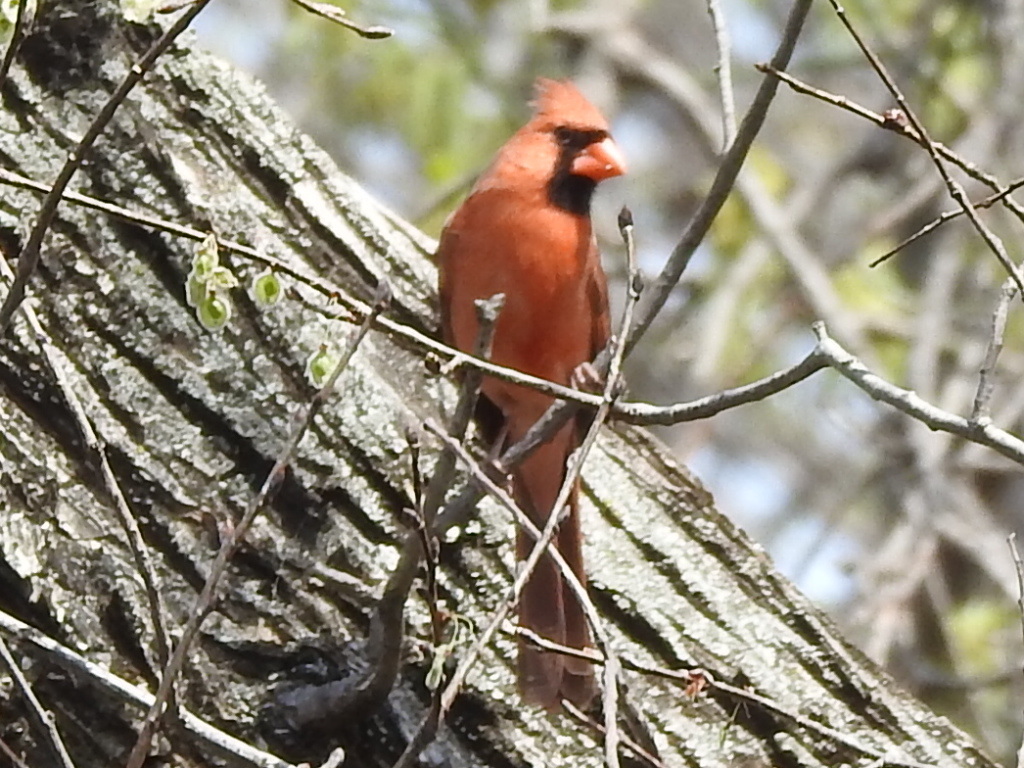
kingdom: Animalia
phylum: Chordata
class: Aves
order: Passeriformes
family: Cardinalidae
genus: Cardinalis
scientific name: Cardinalis cardinalis
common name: Northern cardinal
